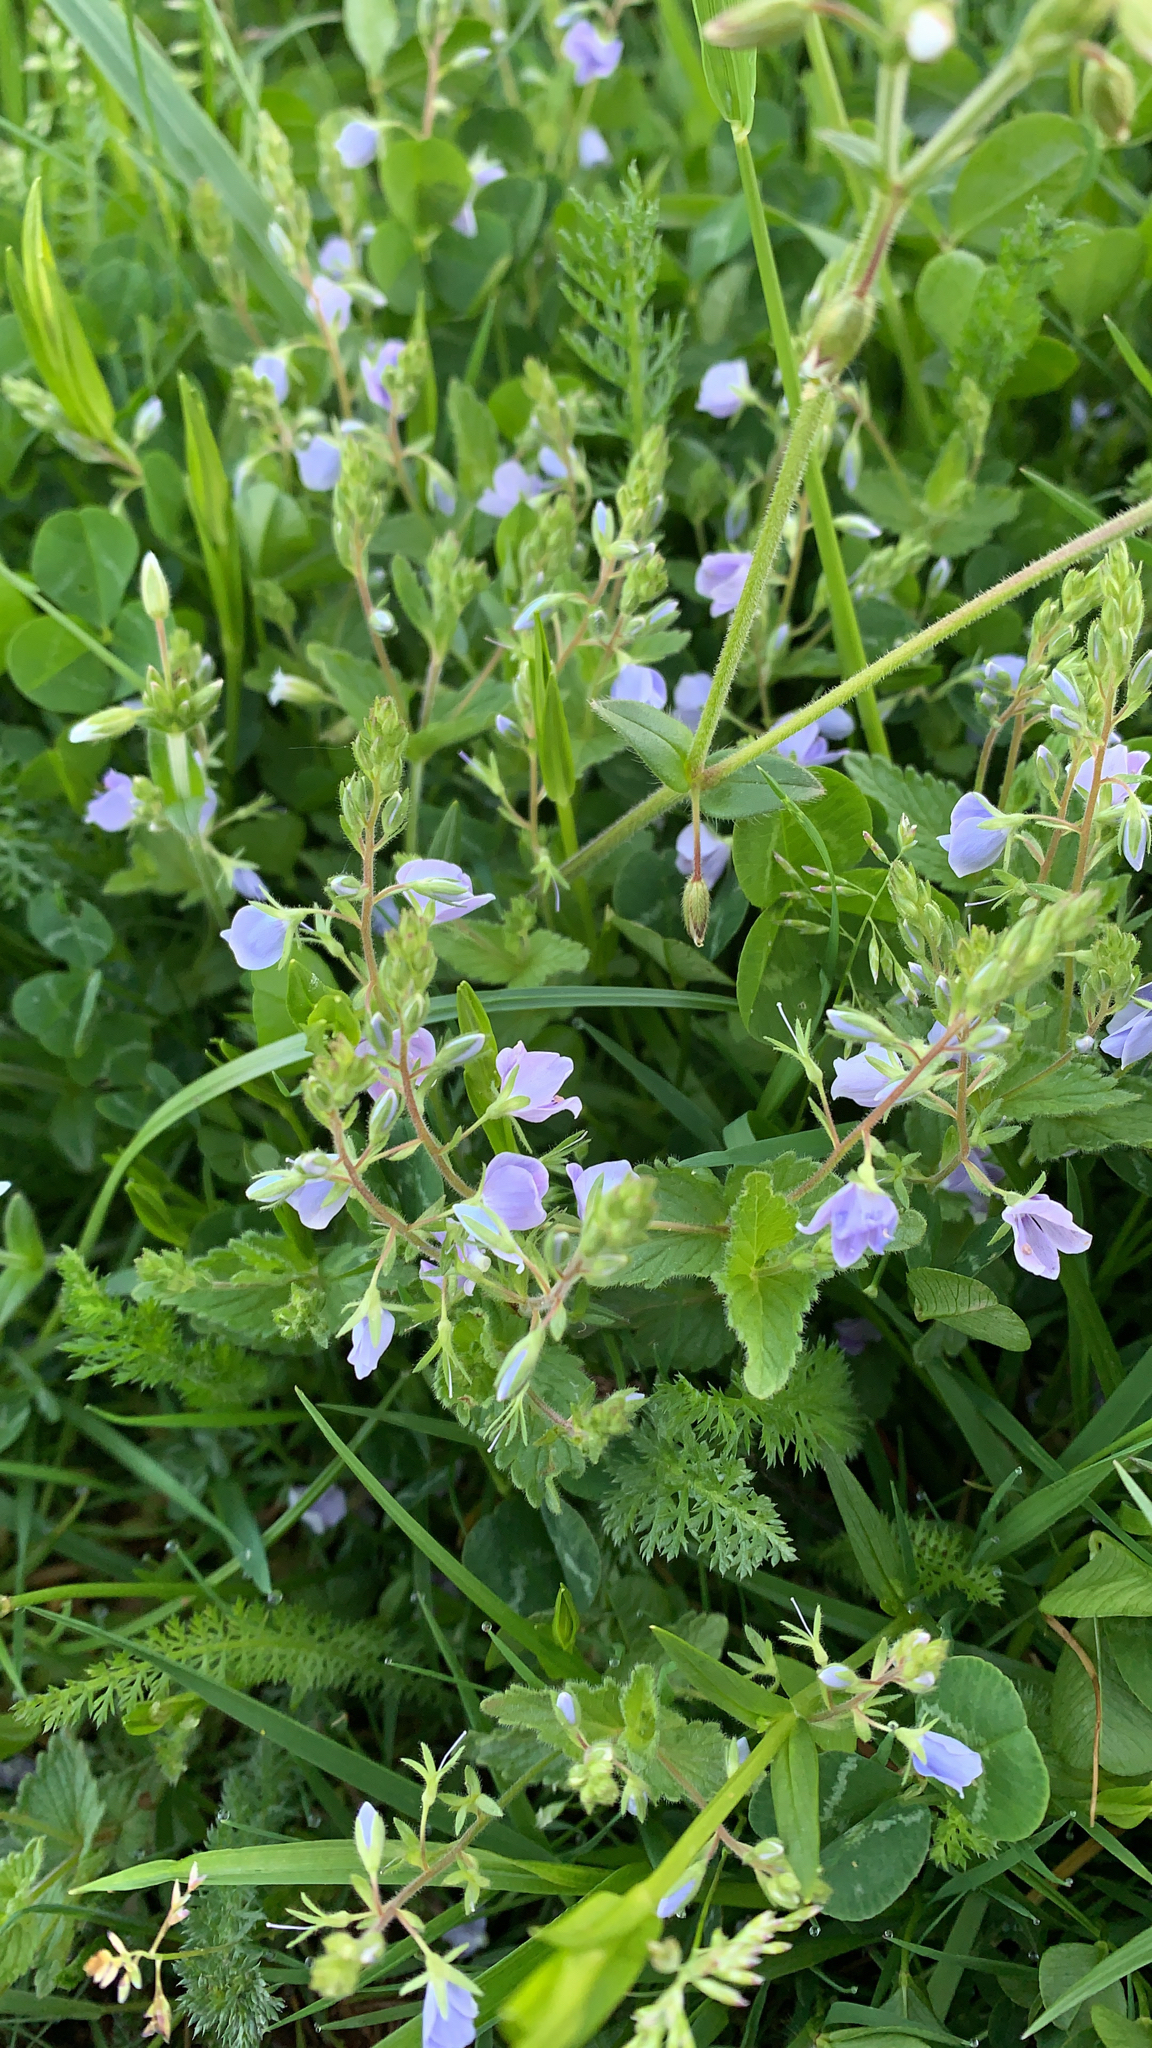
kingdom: Plantae
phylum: Tracheophyta
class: Magnoliopsida
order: Lamiales
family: Plantaginaceae
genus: Veronica
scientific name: Veronica chamaedrys
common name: Germander speedwell
